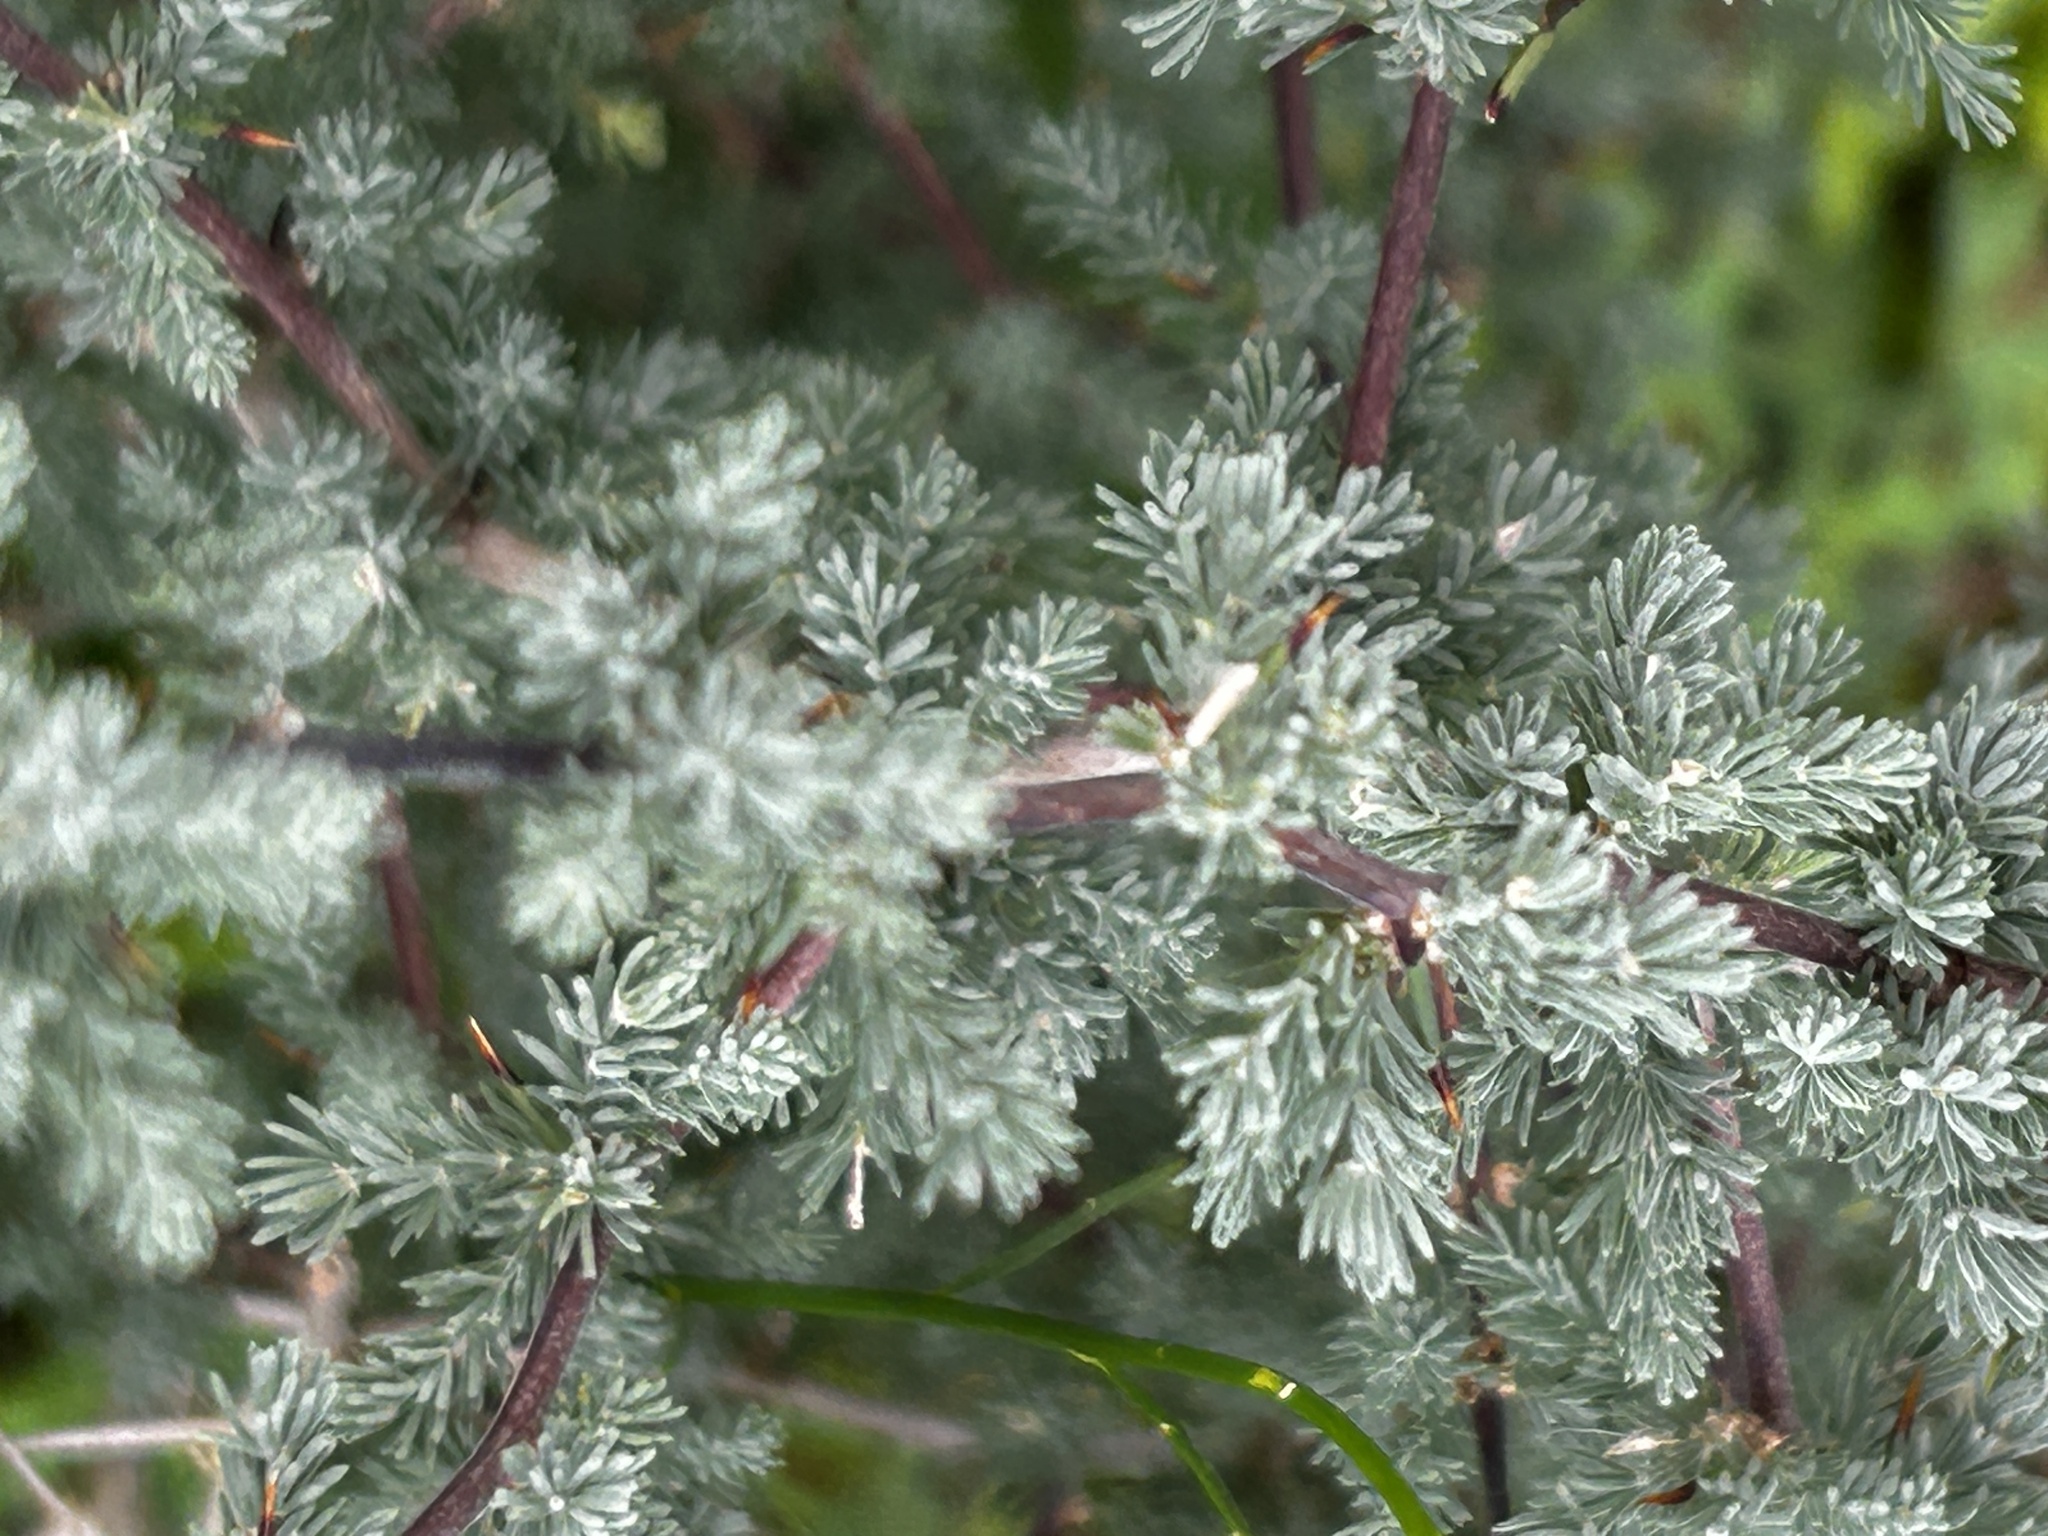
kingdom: Plantae
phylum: Tracheophyta
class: Liliopsida
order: Asparagales
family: Asparagaceae
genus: Asparagus
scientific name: Asparagus capensis
